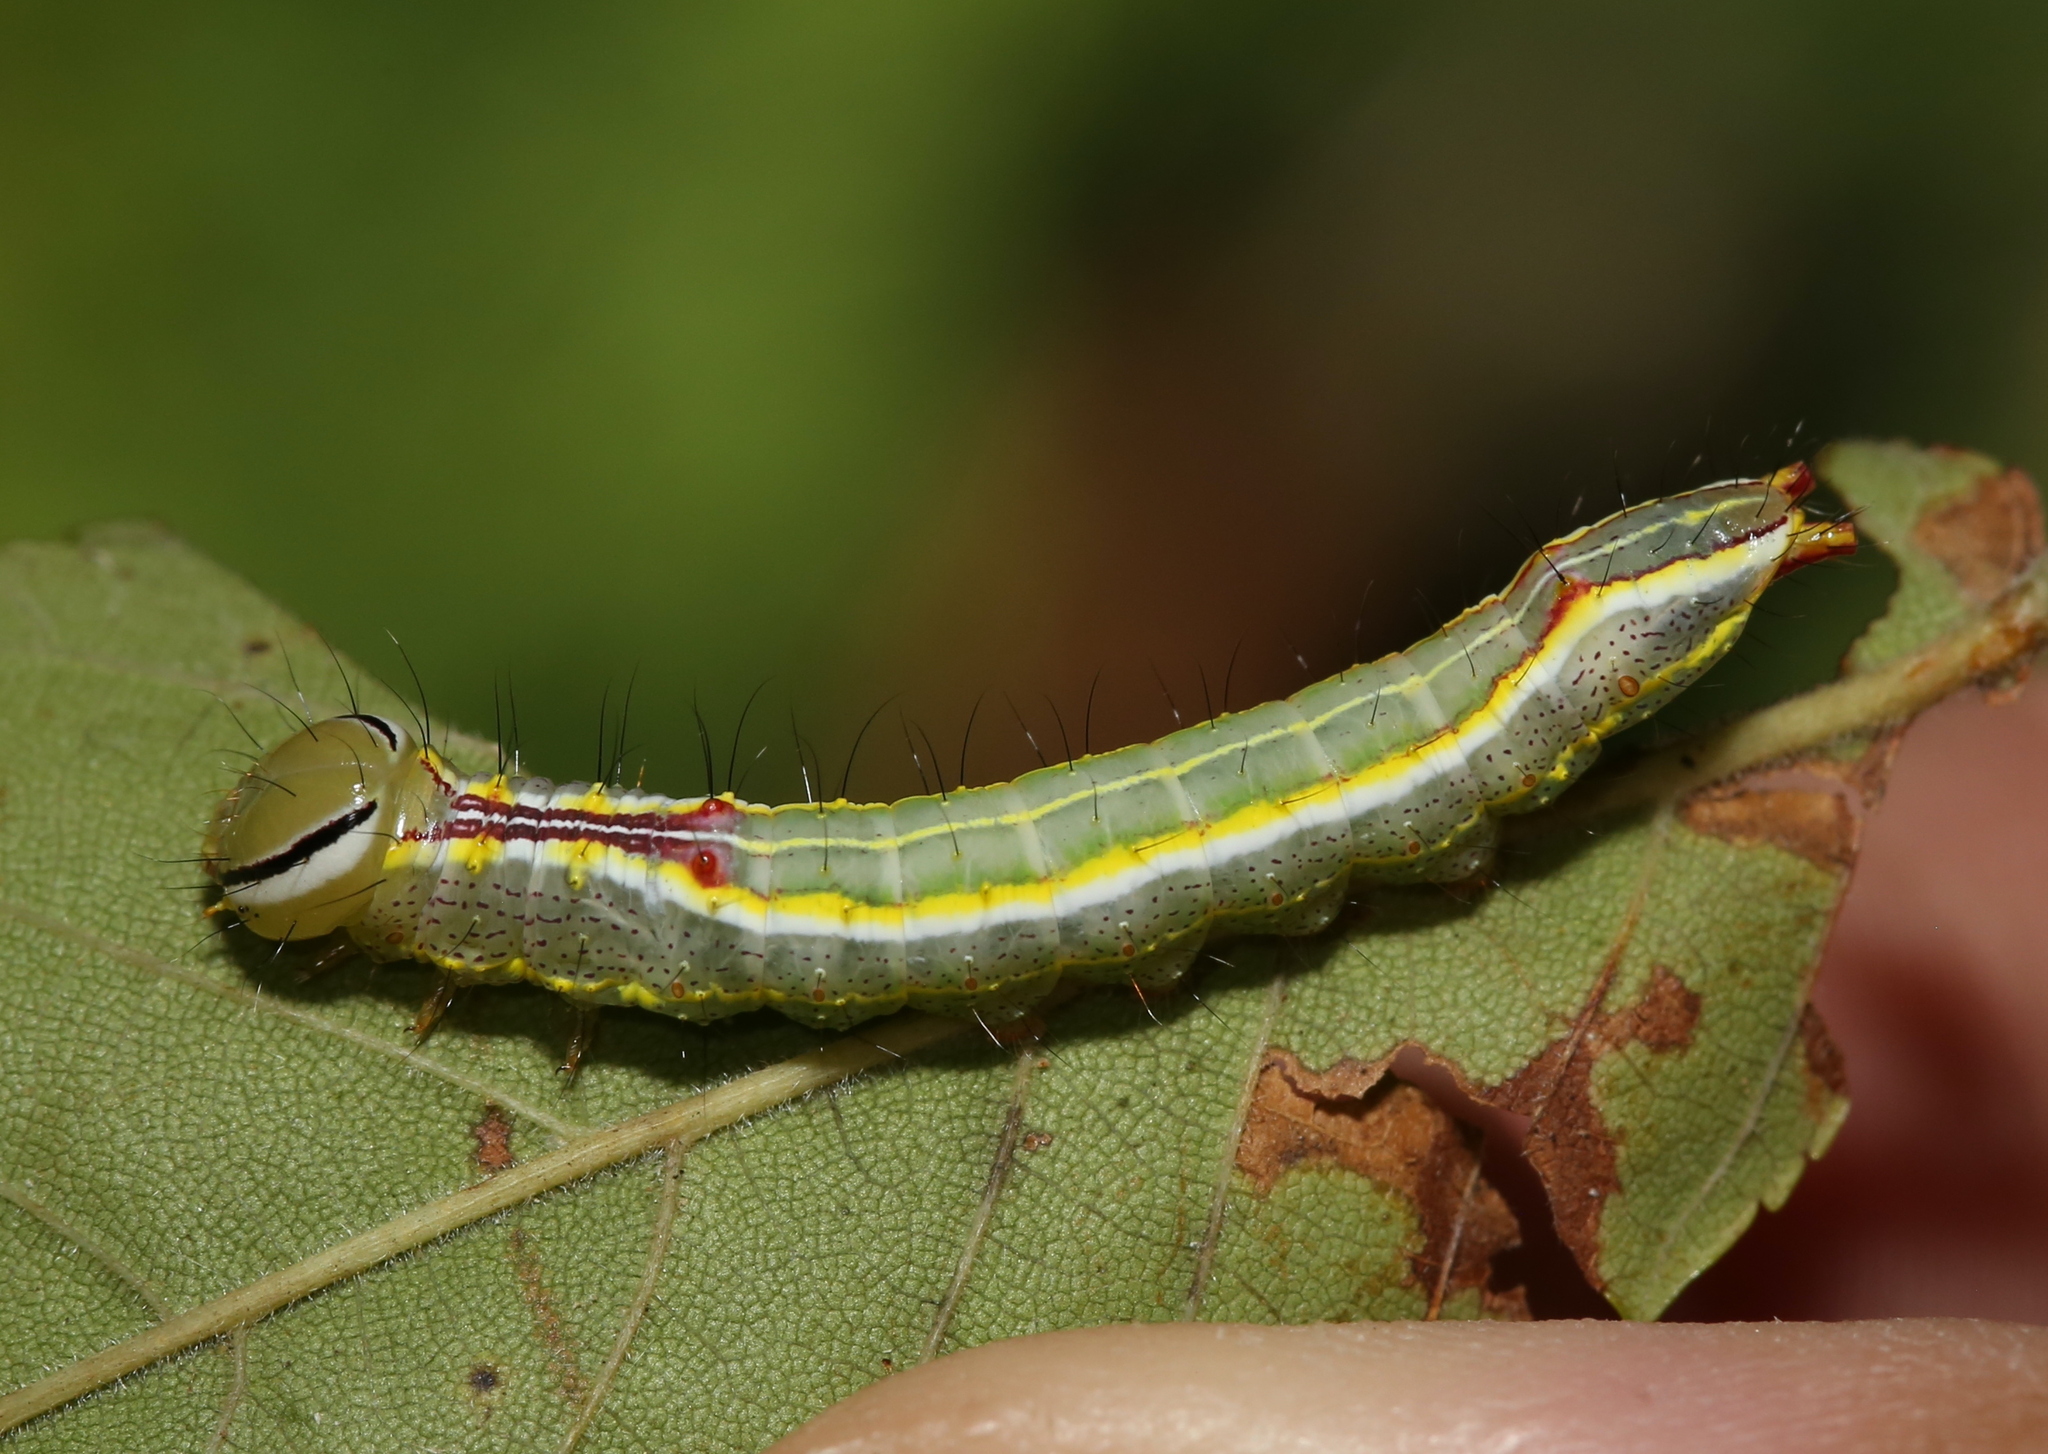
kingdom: Animalia
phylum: Arthropoda
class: Insecta
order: Lepidoptera
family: Notodontidae
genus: Lochmaeus
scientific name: Lochmaeus manteo
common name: Variable oakleaf caterpillar moth
